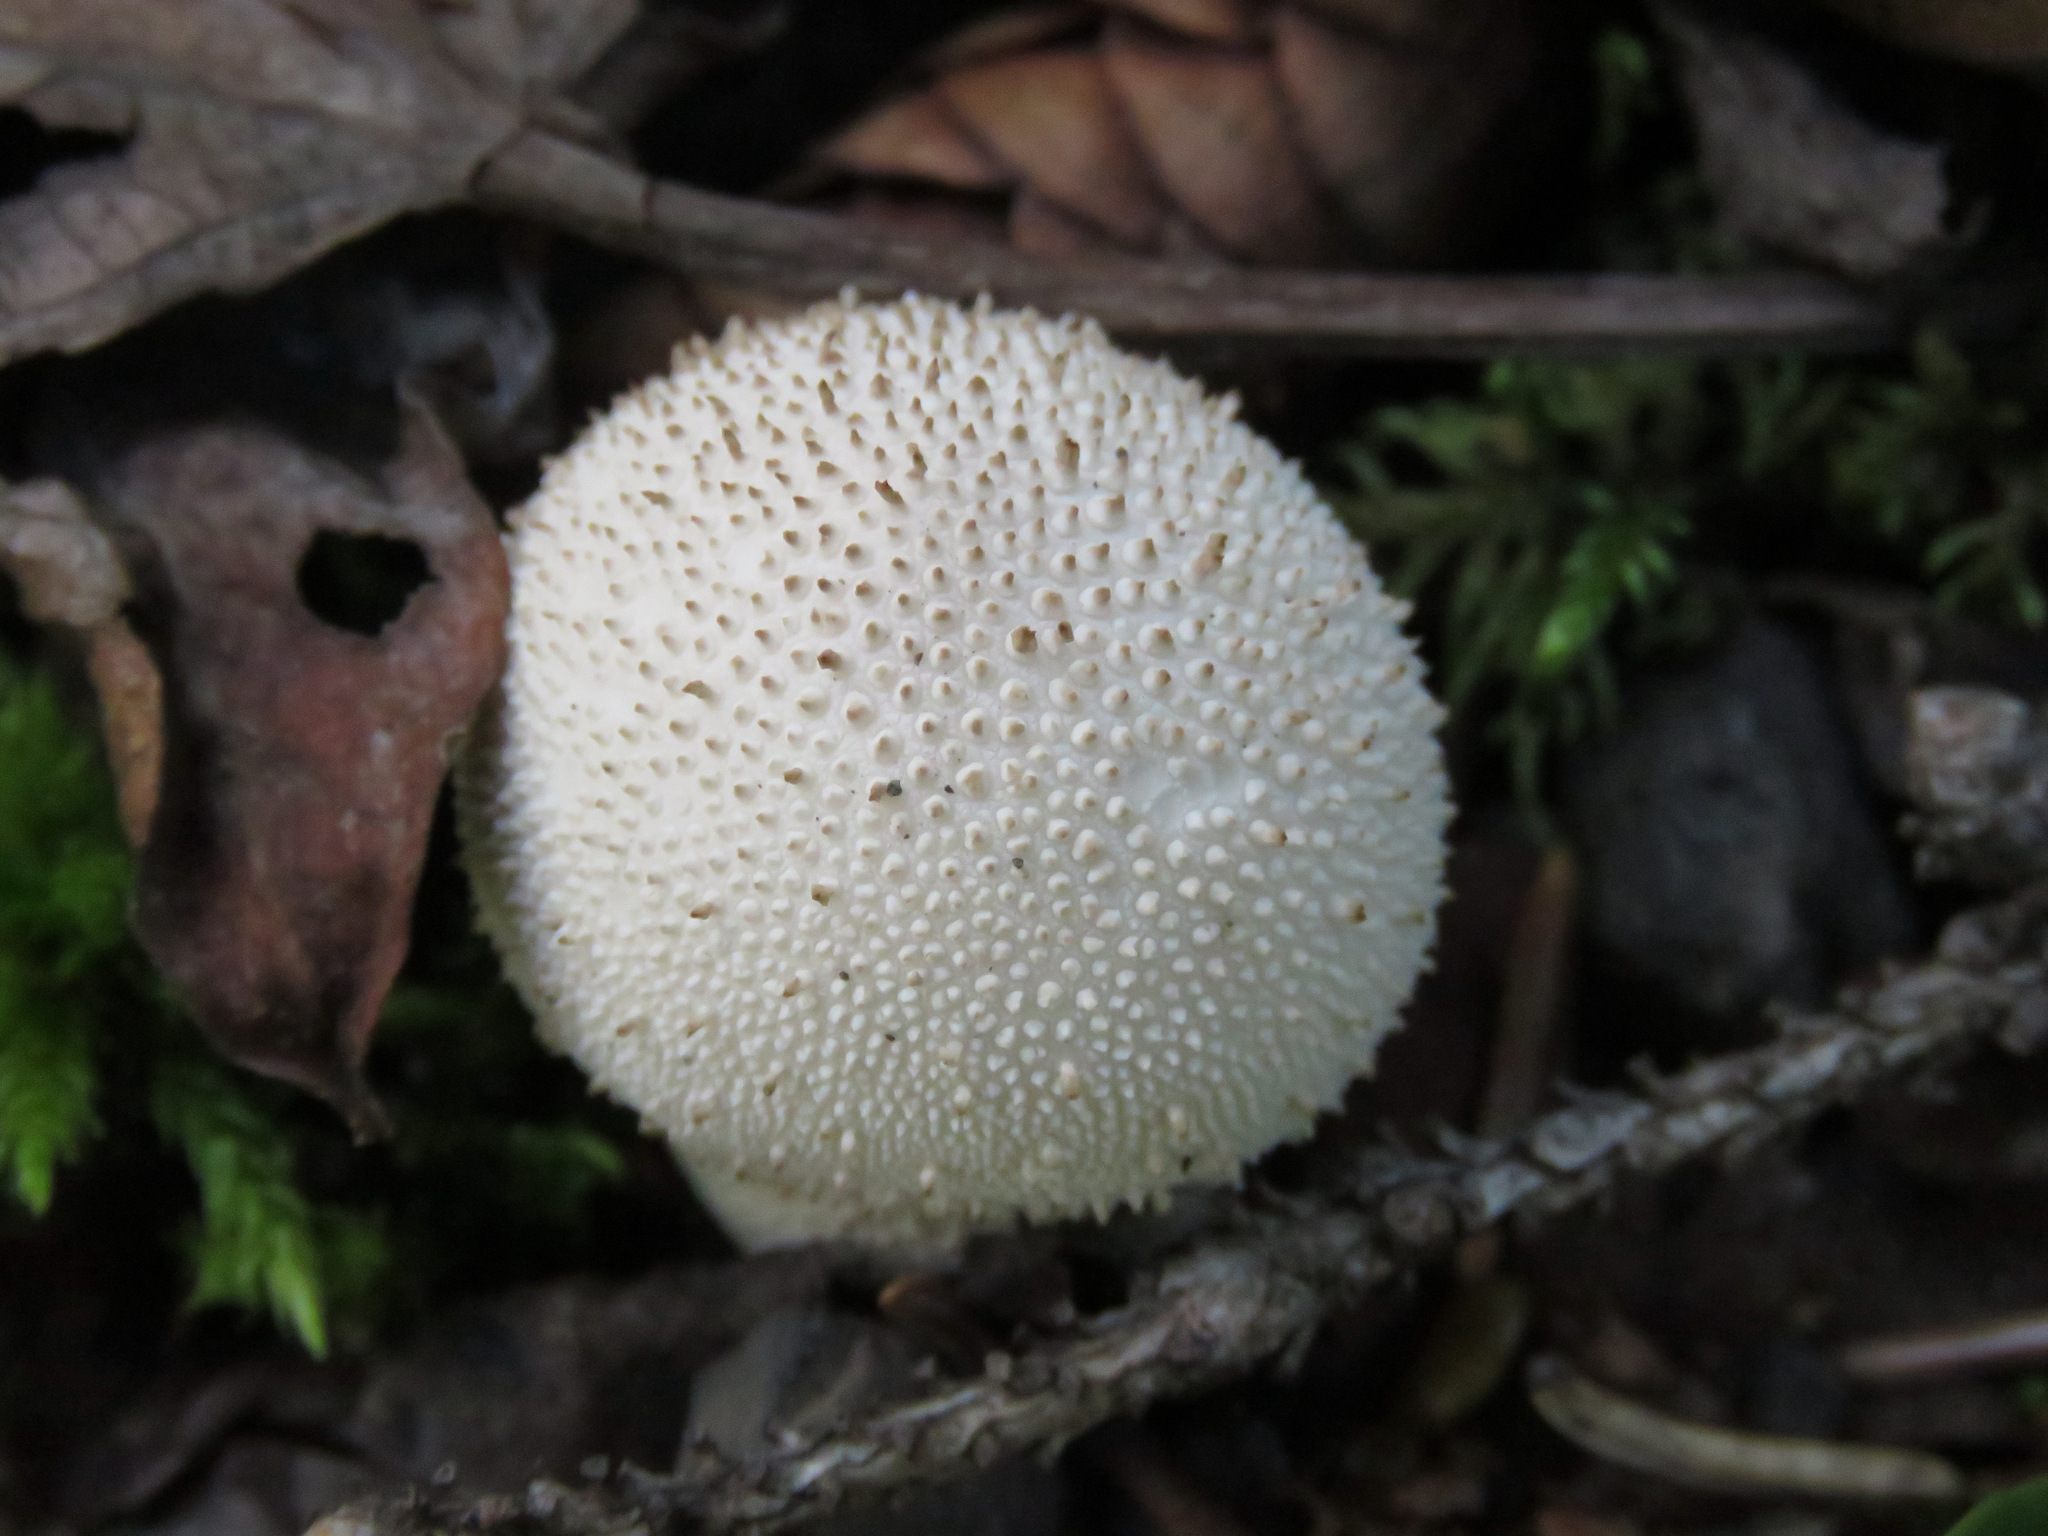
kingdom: Fungi
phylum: Basidiomycota
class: Agaricomycetes
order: Agaricales
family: Lycoperdaceae
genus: Lycoperdon
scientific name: Lycoperdon perlatum
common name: Common puffball
